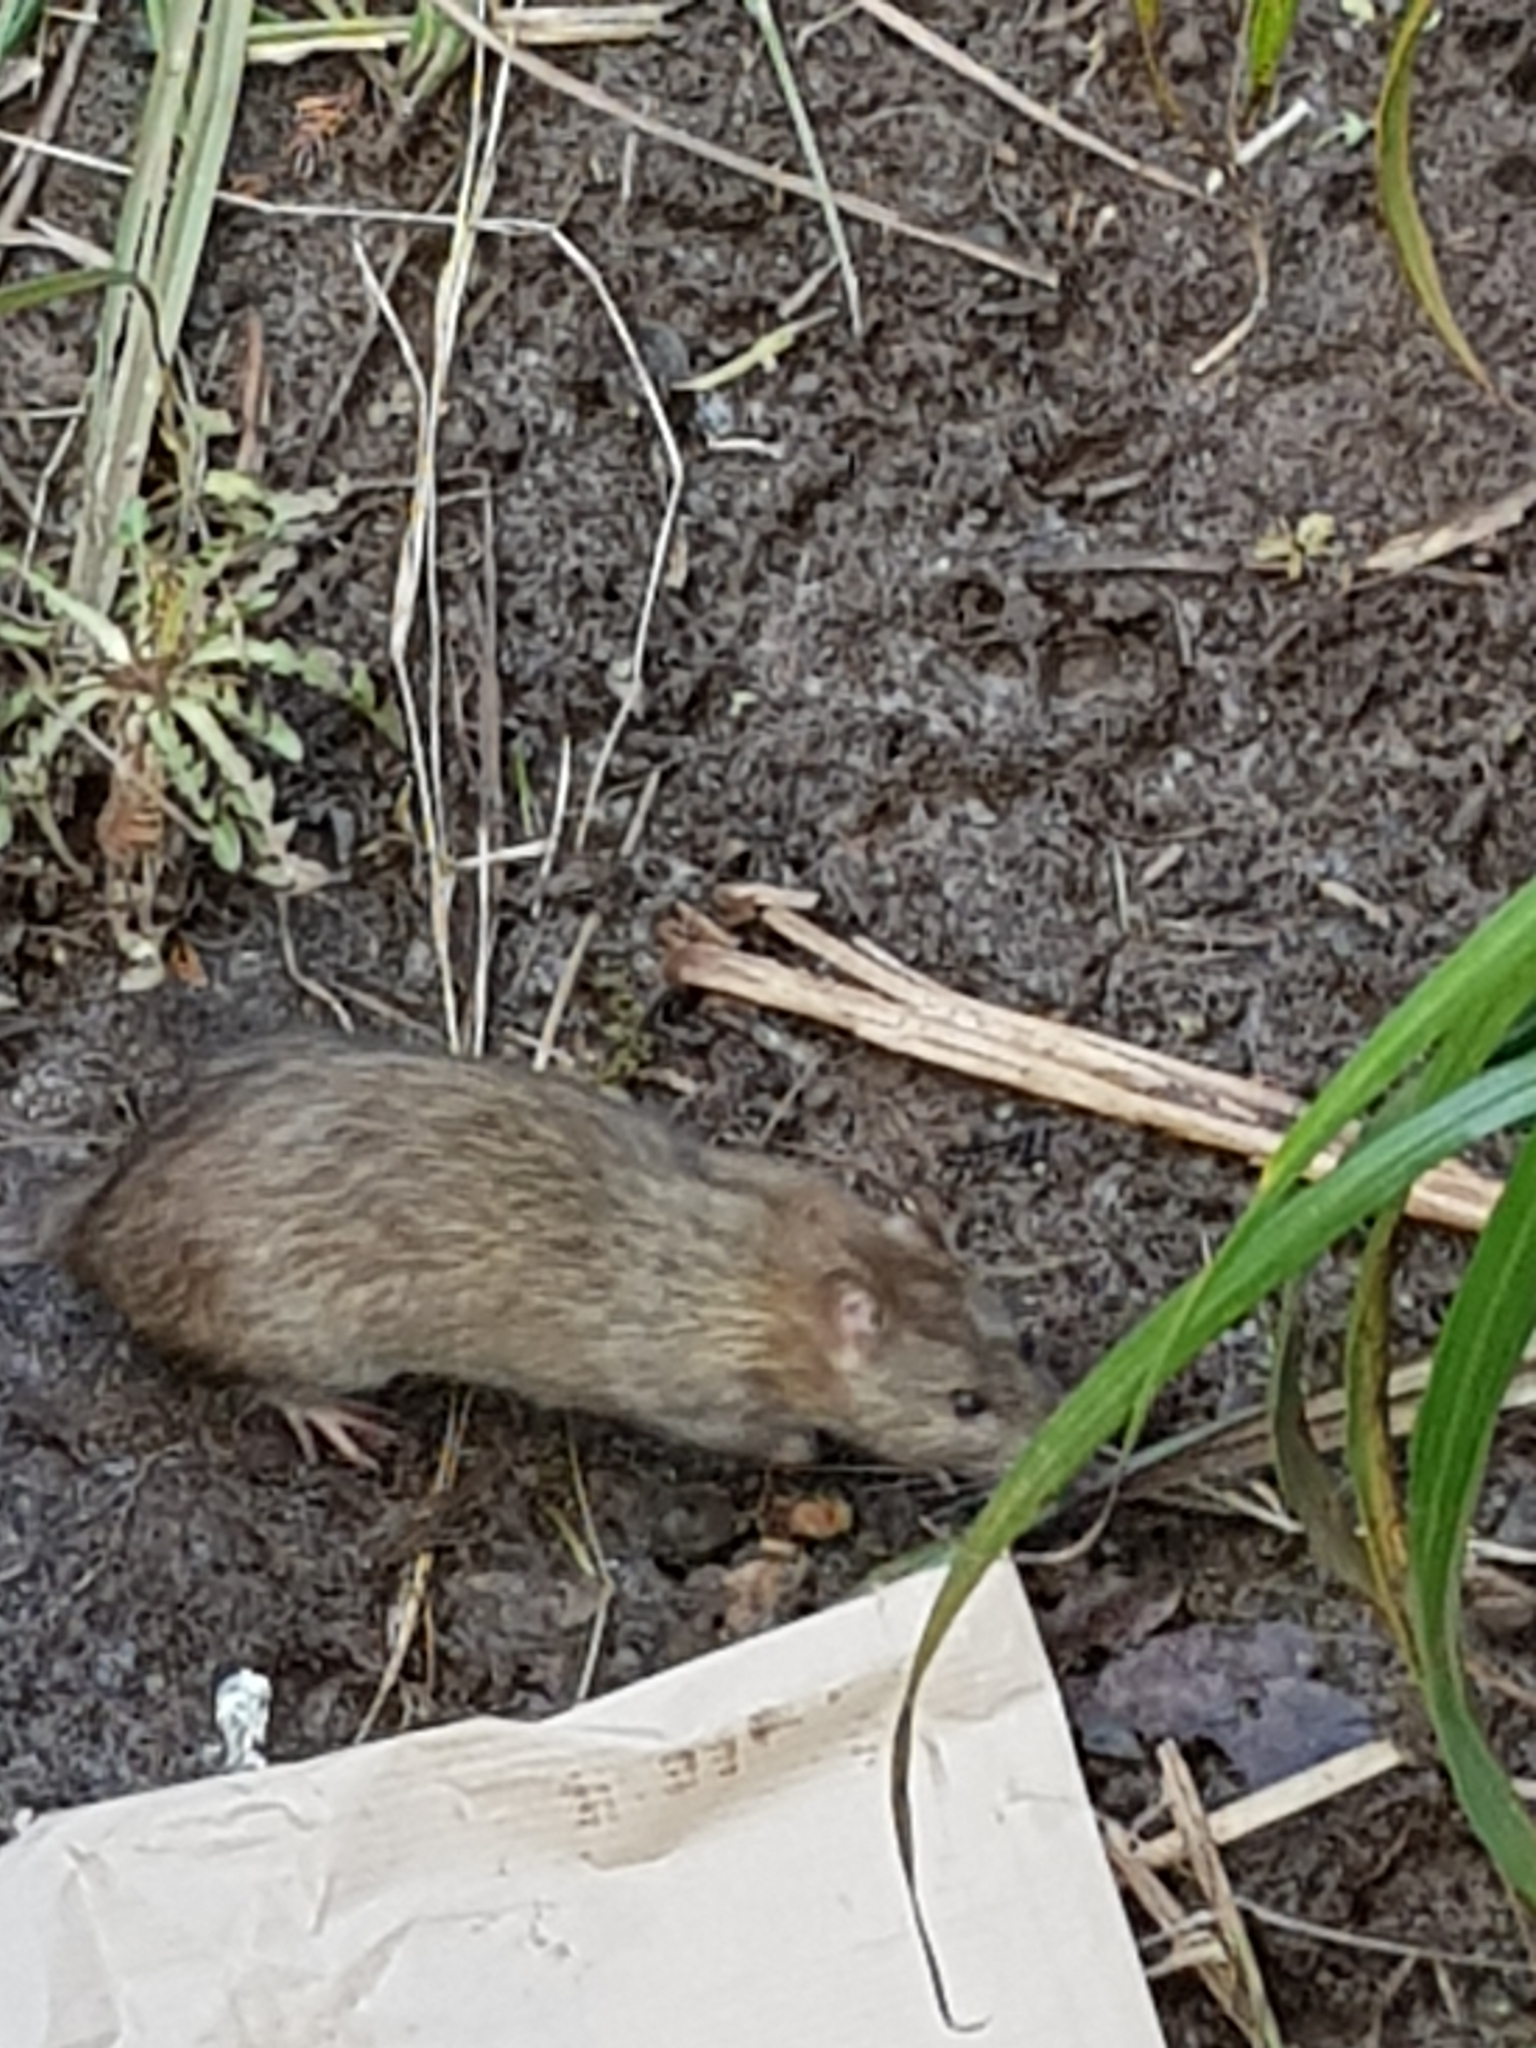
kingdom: Animalia
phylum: Chordata
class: Mammalia
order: Rodentia
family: Muridae
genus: Rattus
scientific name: Rattus norvegicus
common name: Brown rat
